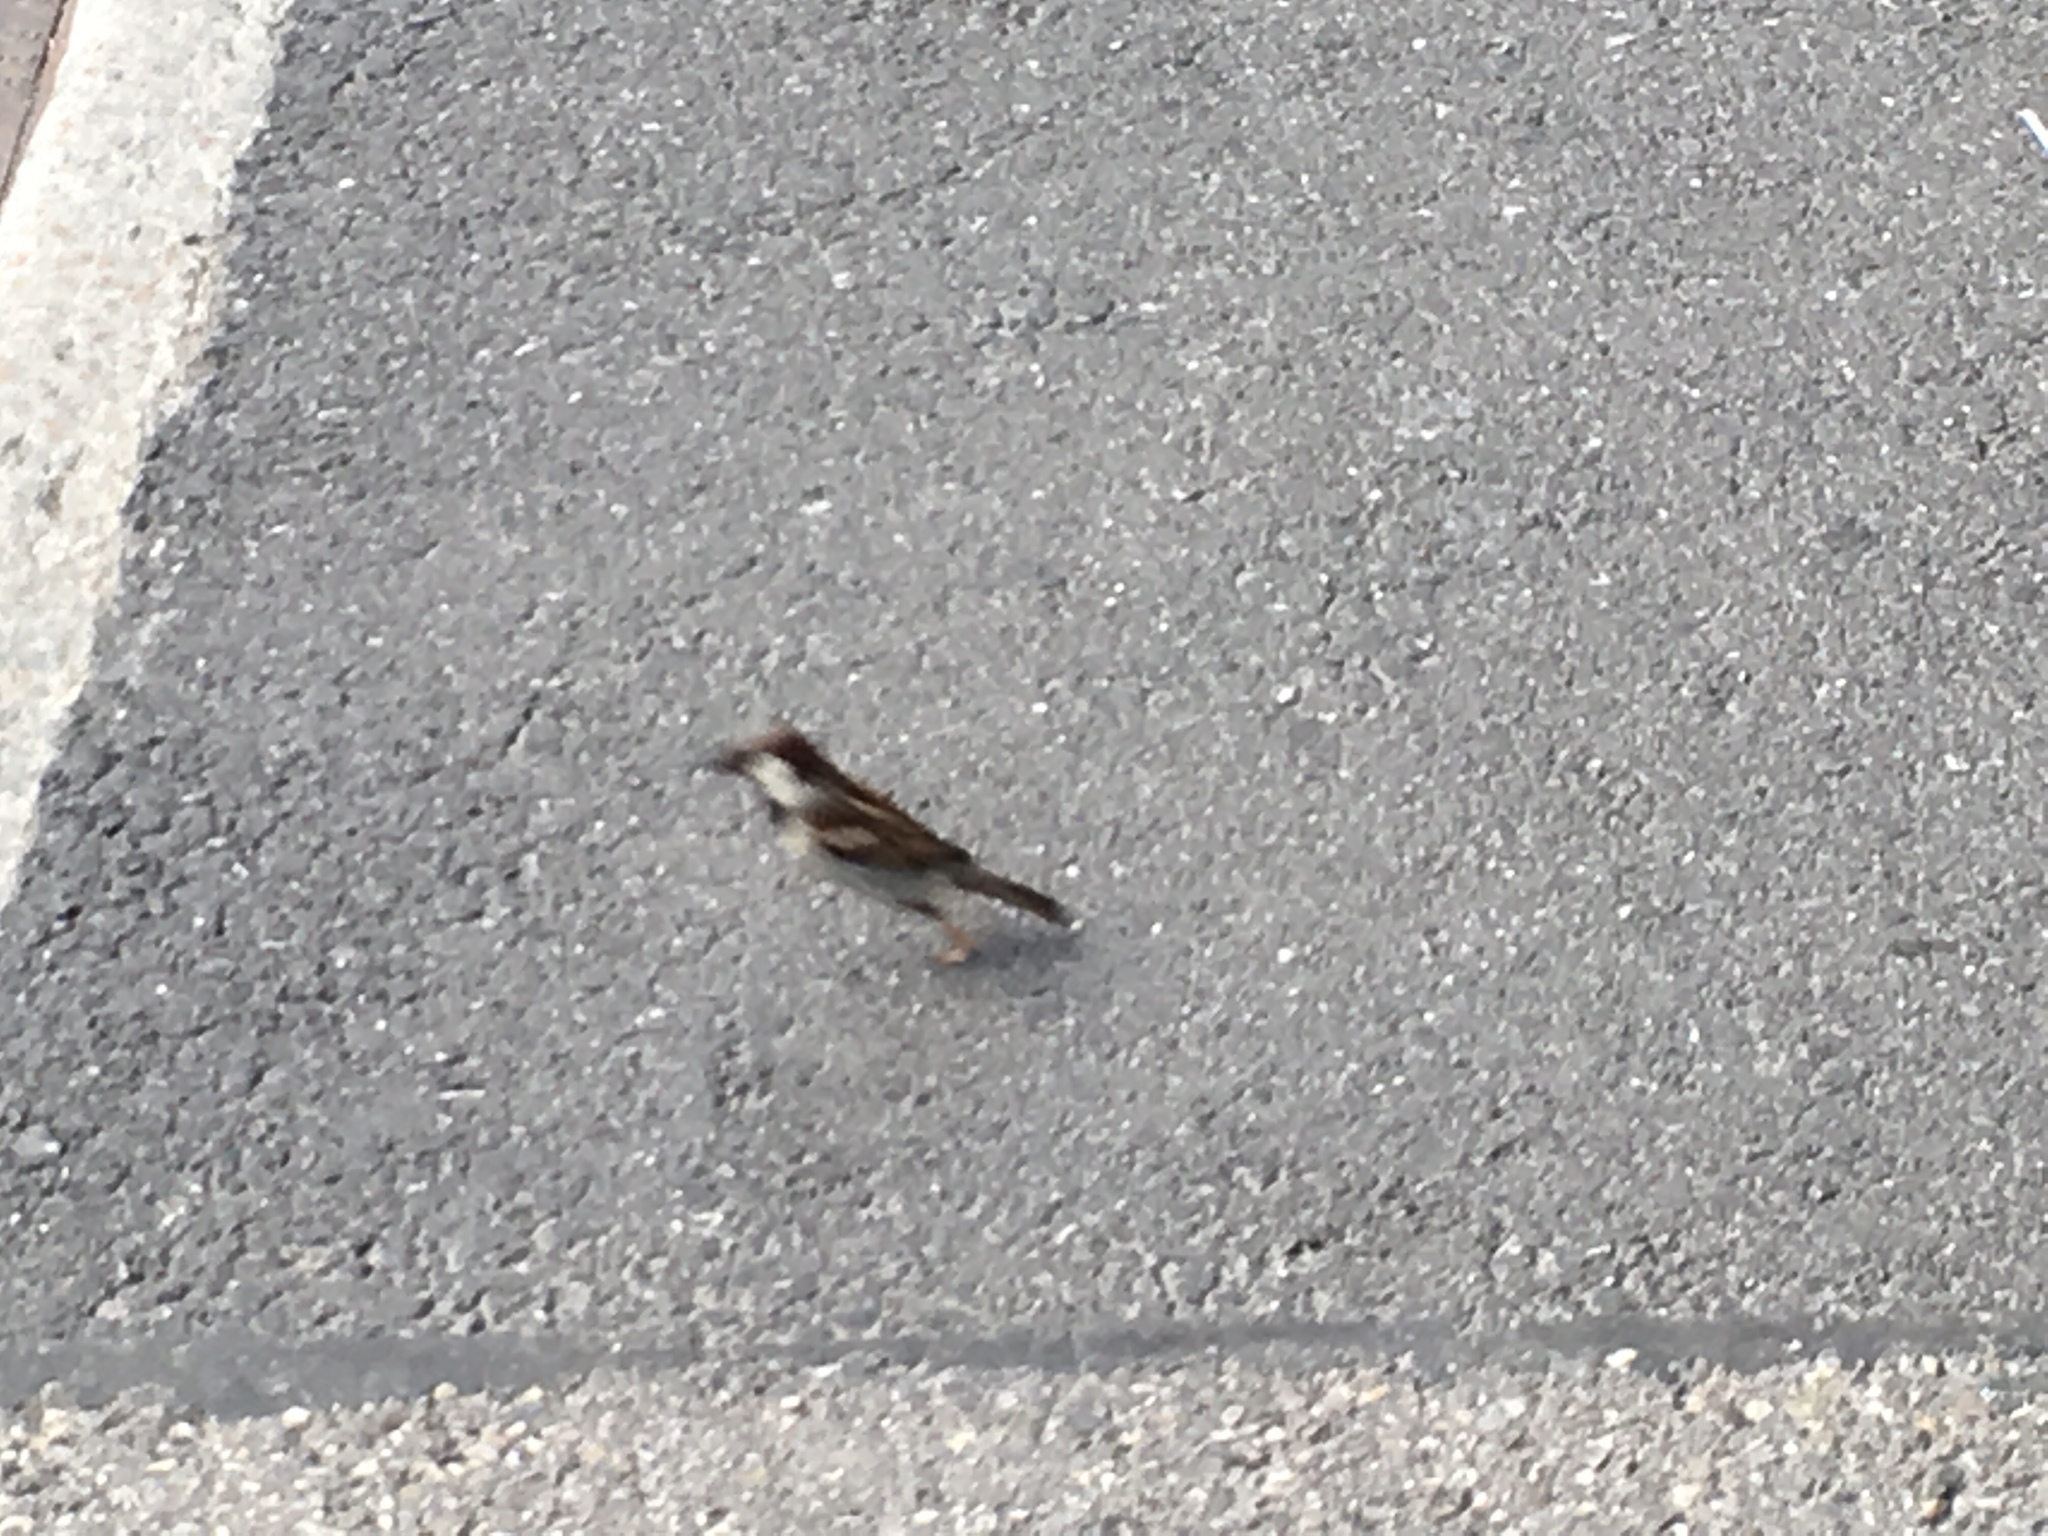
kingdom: Animalia
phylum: Chordata
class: Aves
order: Passeriformes
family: Passeridae
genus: Passer
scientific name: Passer domesticus
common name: House sparrow
